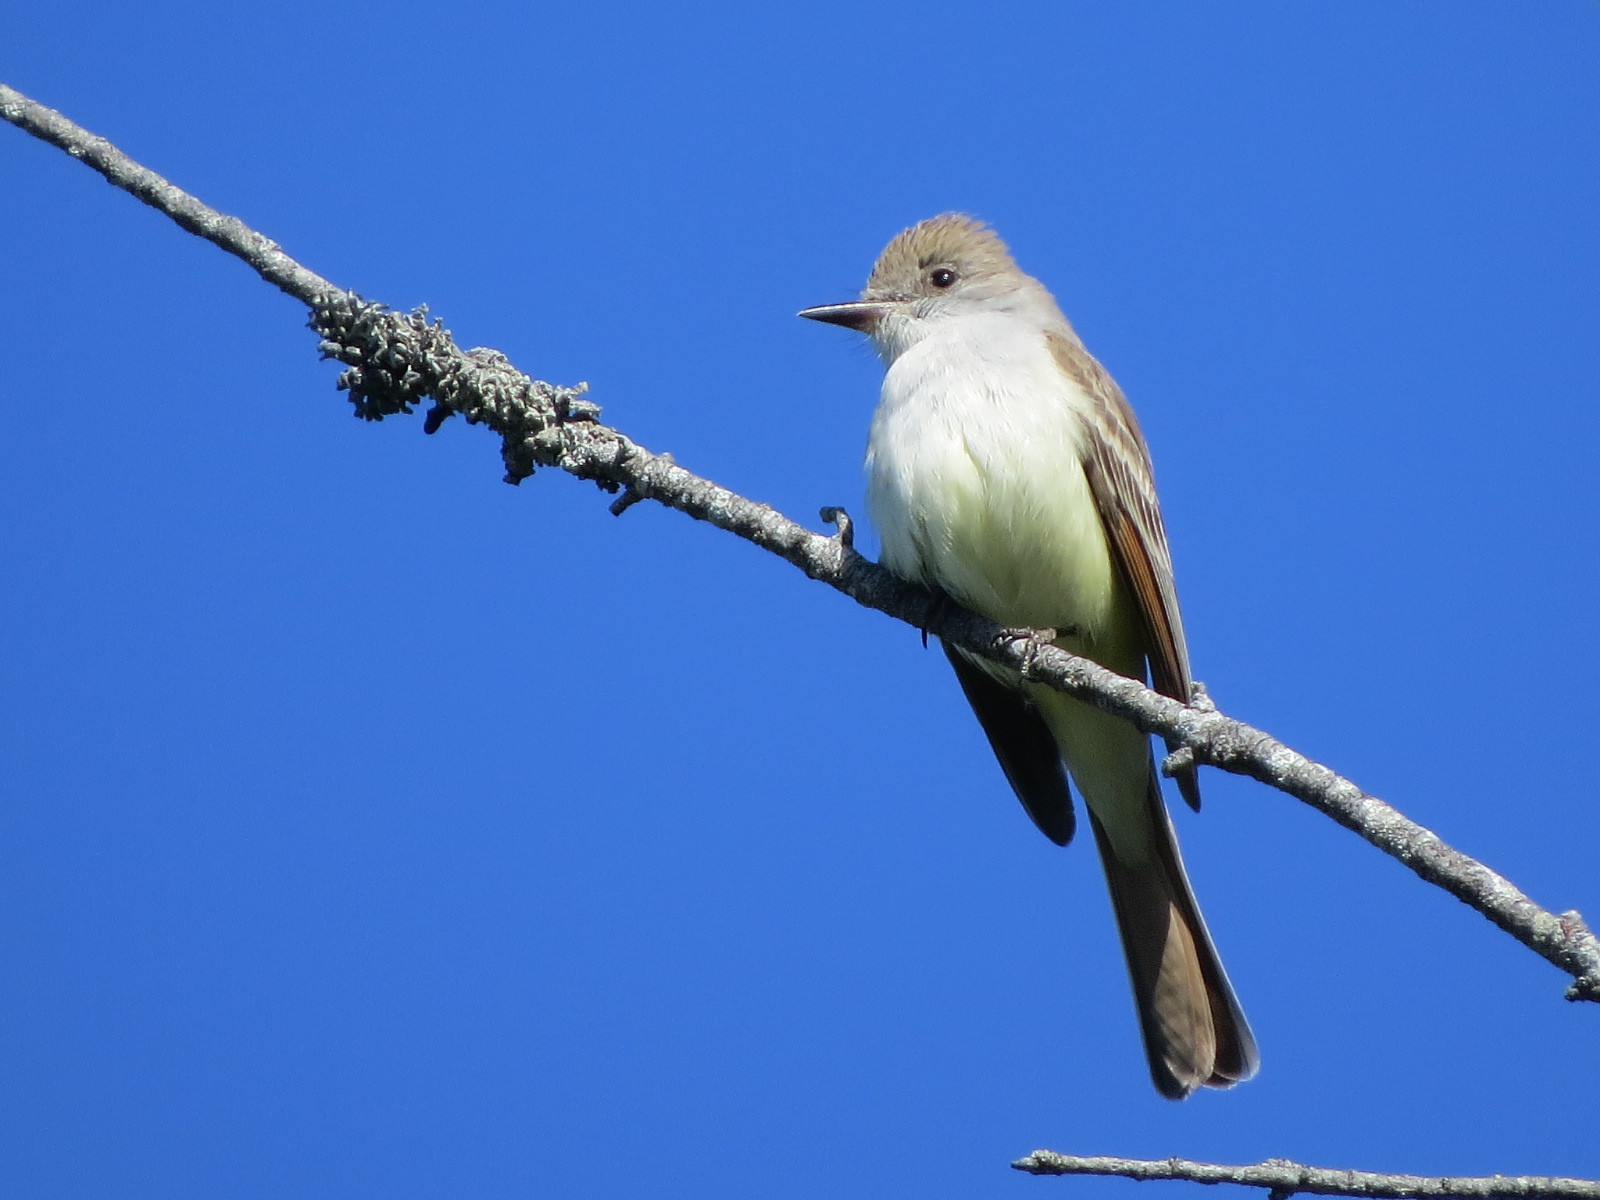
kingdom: Animalia
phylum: Chordata
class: Aves
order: Passeriformes
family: Tyrannidae
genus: Myiarchus
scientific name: Myiarchus cinerascens
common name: Ash-throated flycatcher
